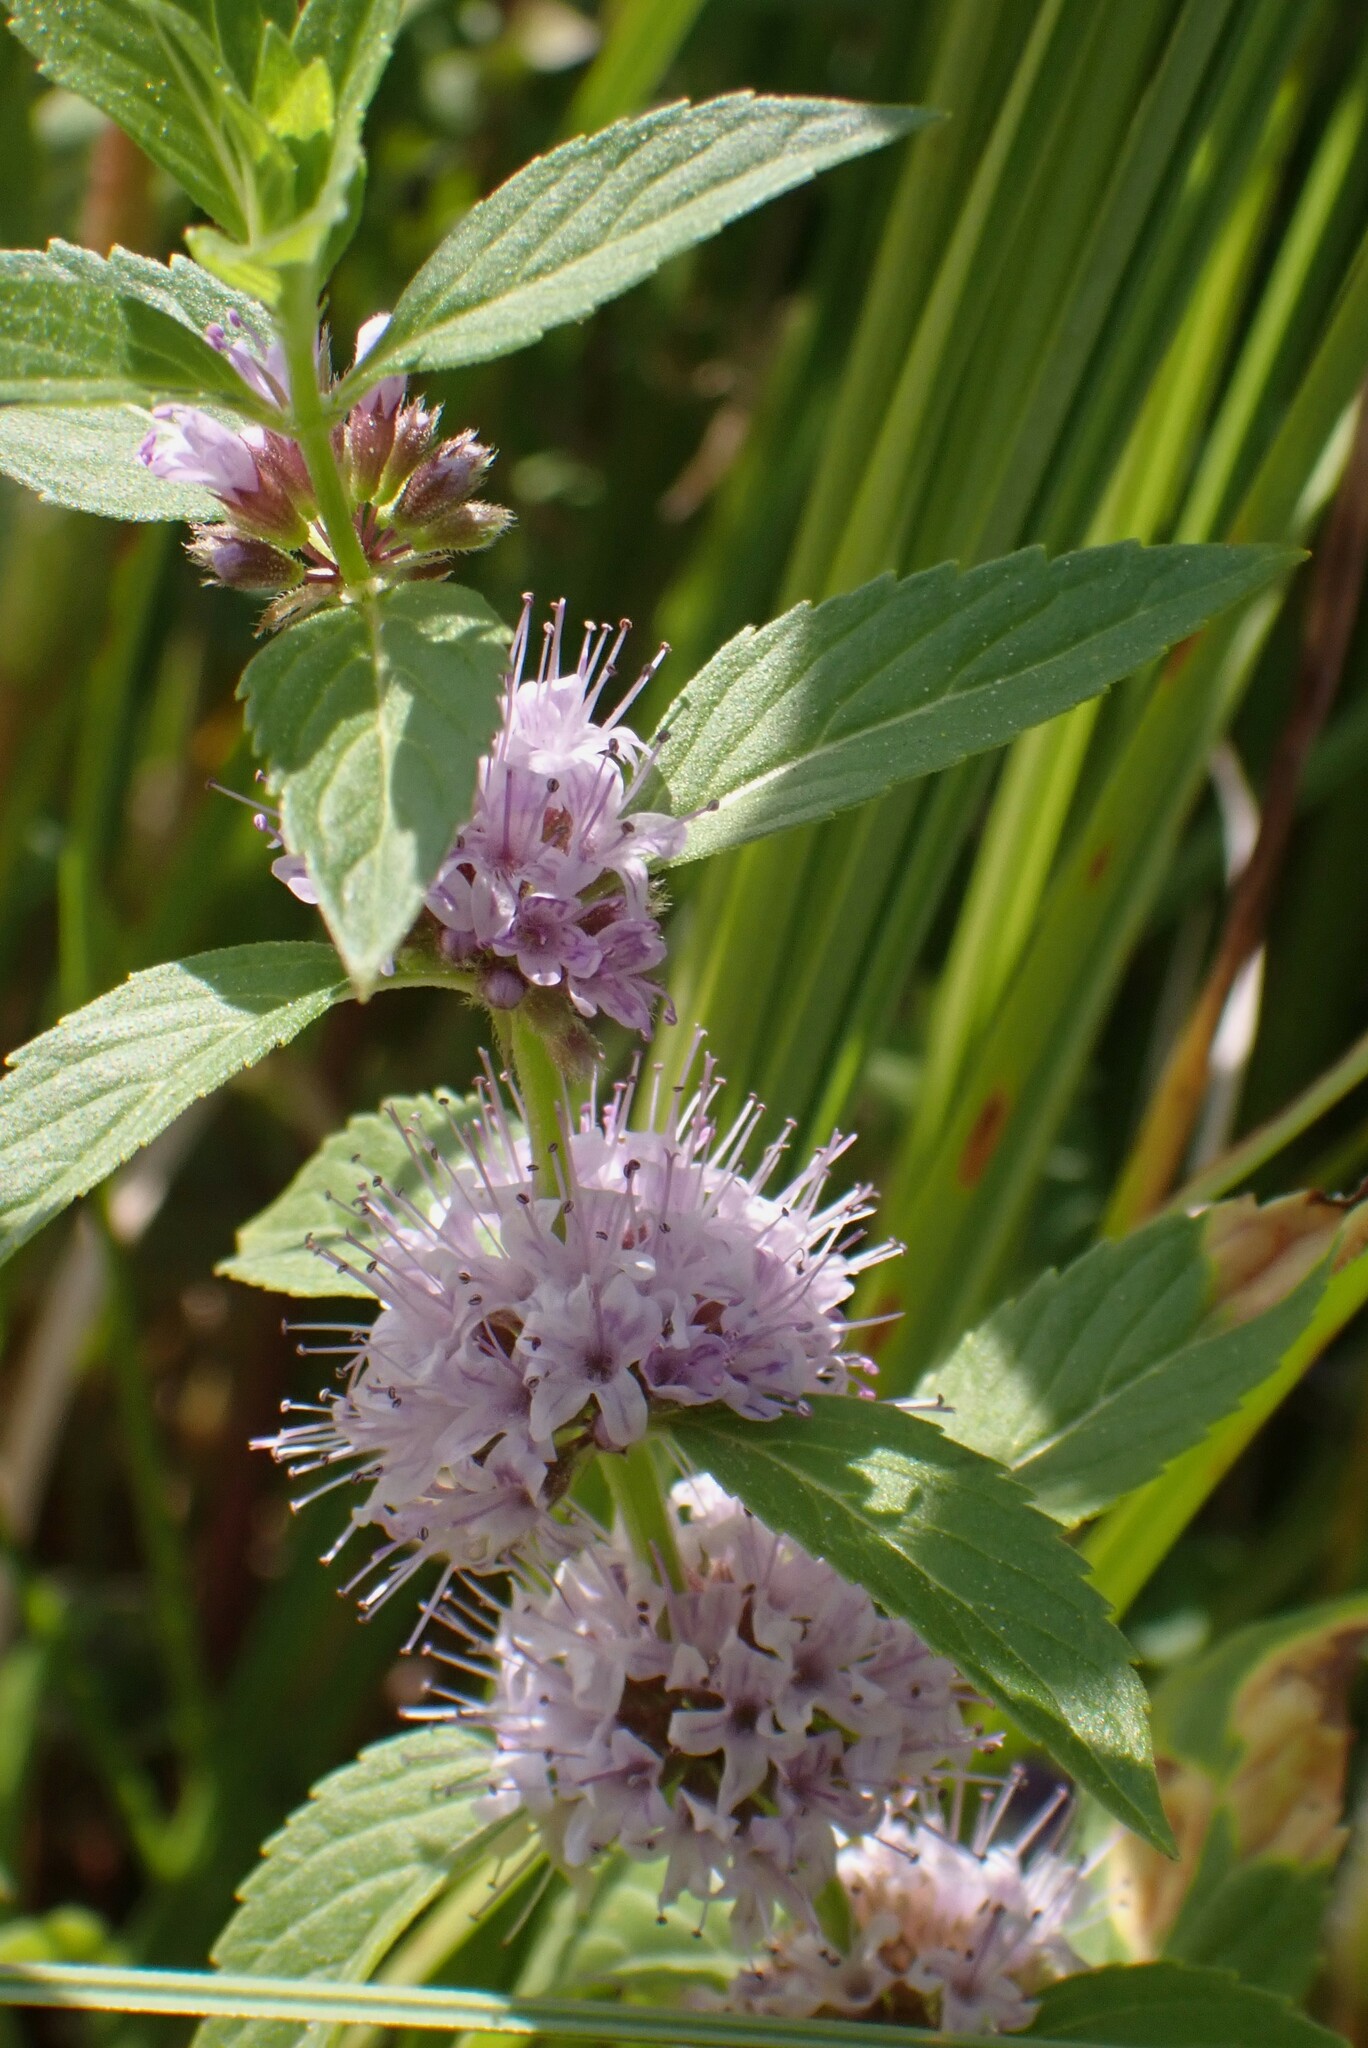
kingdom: Plantae
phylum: Tracheophyta
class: Magnoliopsida
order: Lamiales
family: Lamiaceae
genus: Mentha
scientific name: Mentha canadensis
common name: American corn mint
